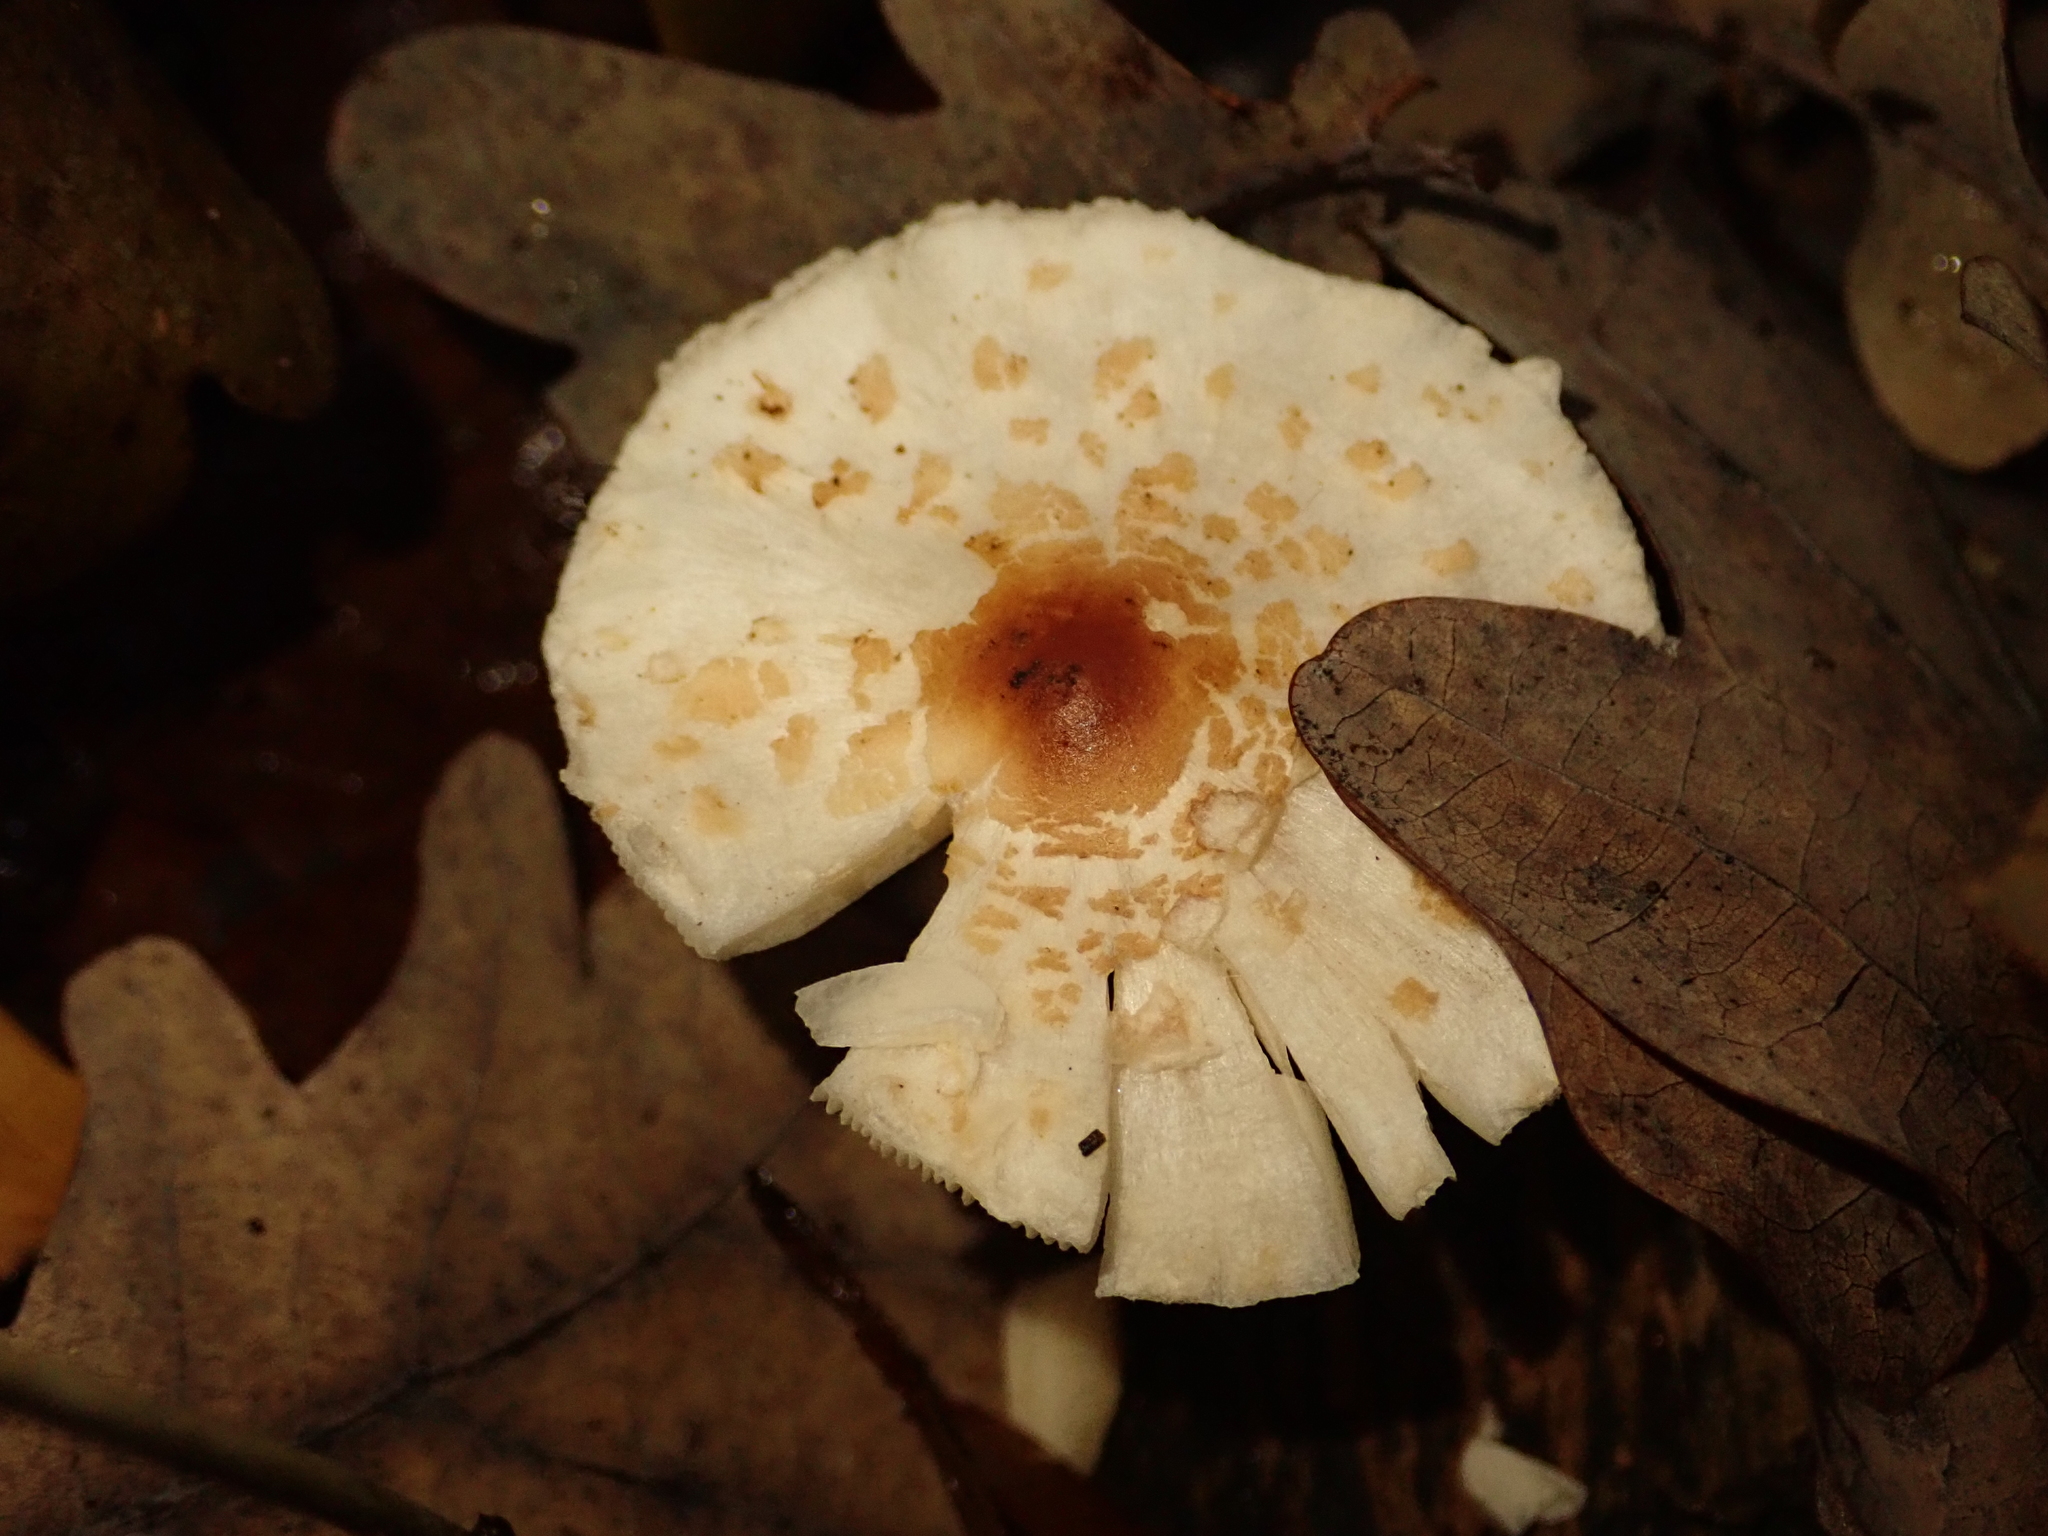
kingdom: Fungi
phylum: Basidiomycota
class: Agaricomycetes
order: Agaricales
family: Agaricaceae
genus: Lepiota
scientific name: Lepiota cristata
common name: Stinking dapperling
